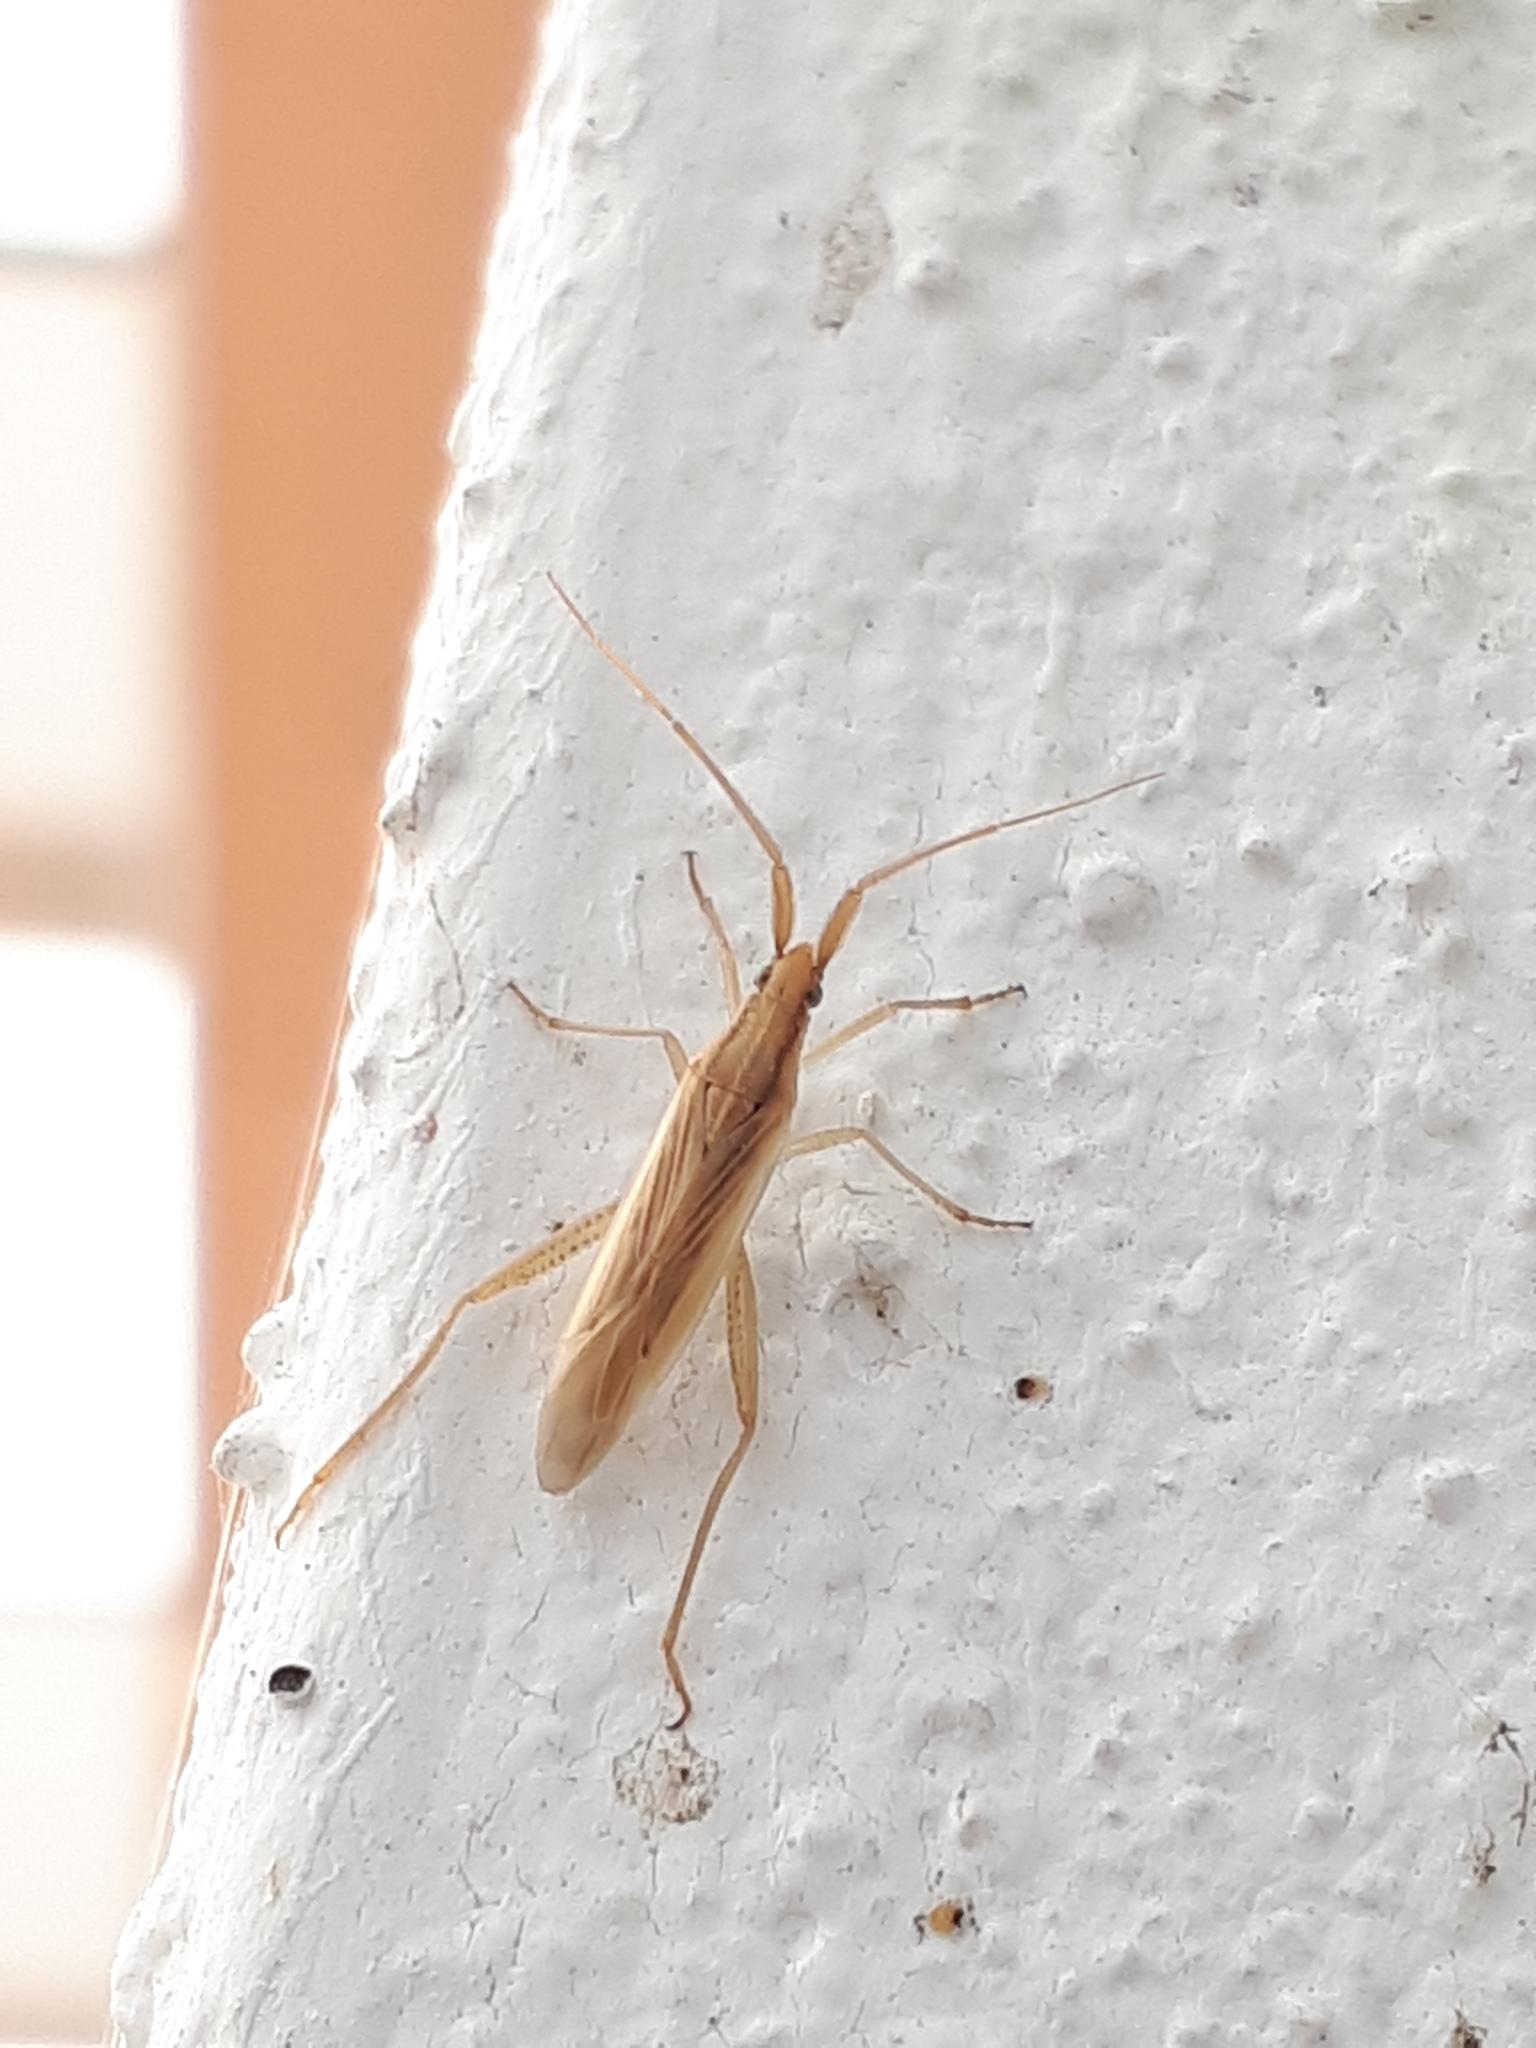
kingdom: Animalia
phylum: Arthropoda
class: Insecta
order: Hemiptera
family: Miridae
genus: Stenodema
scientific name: Stenodema laevigata
